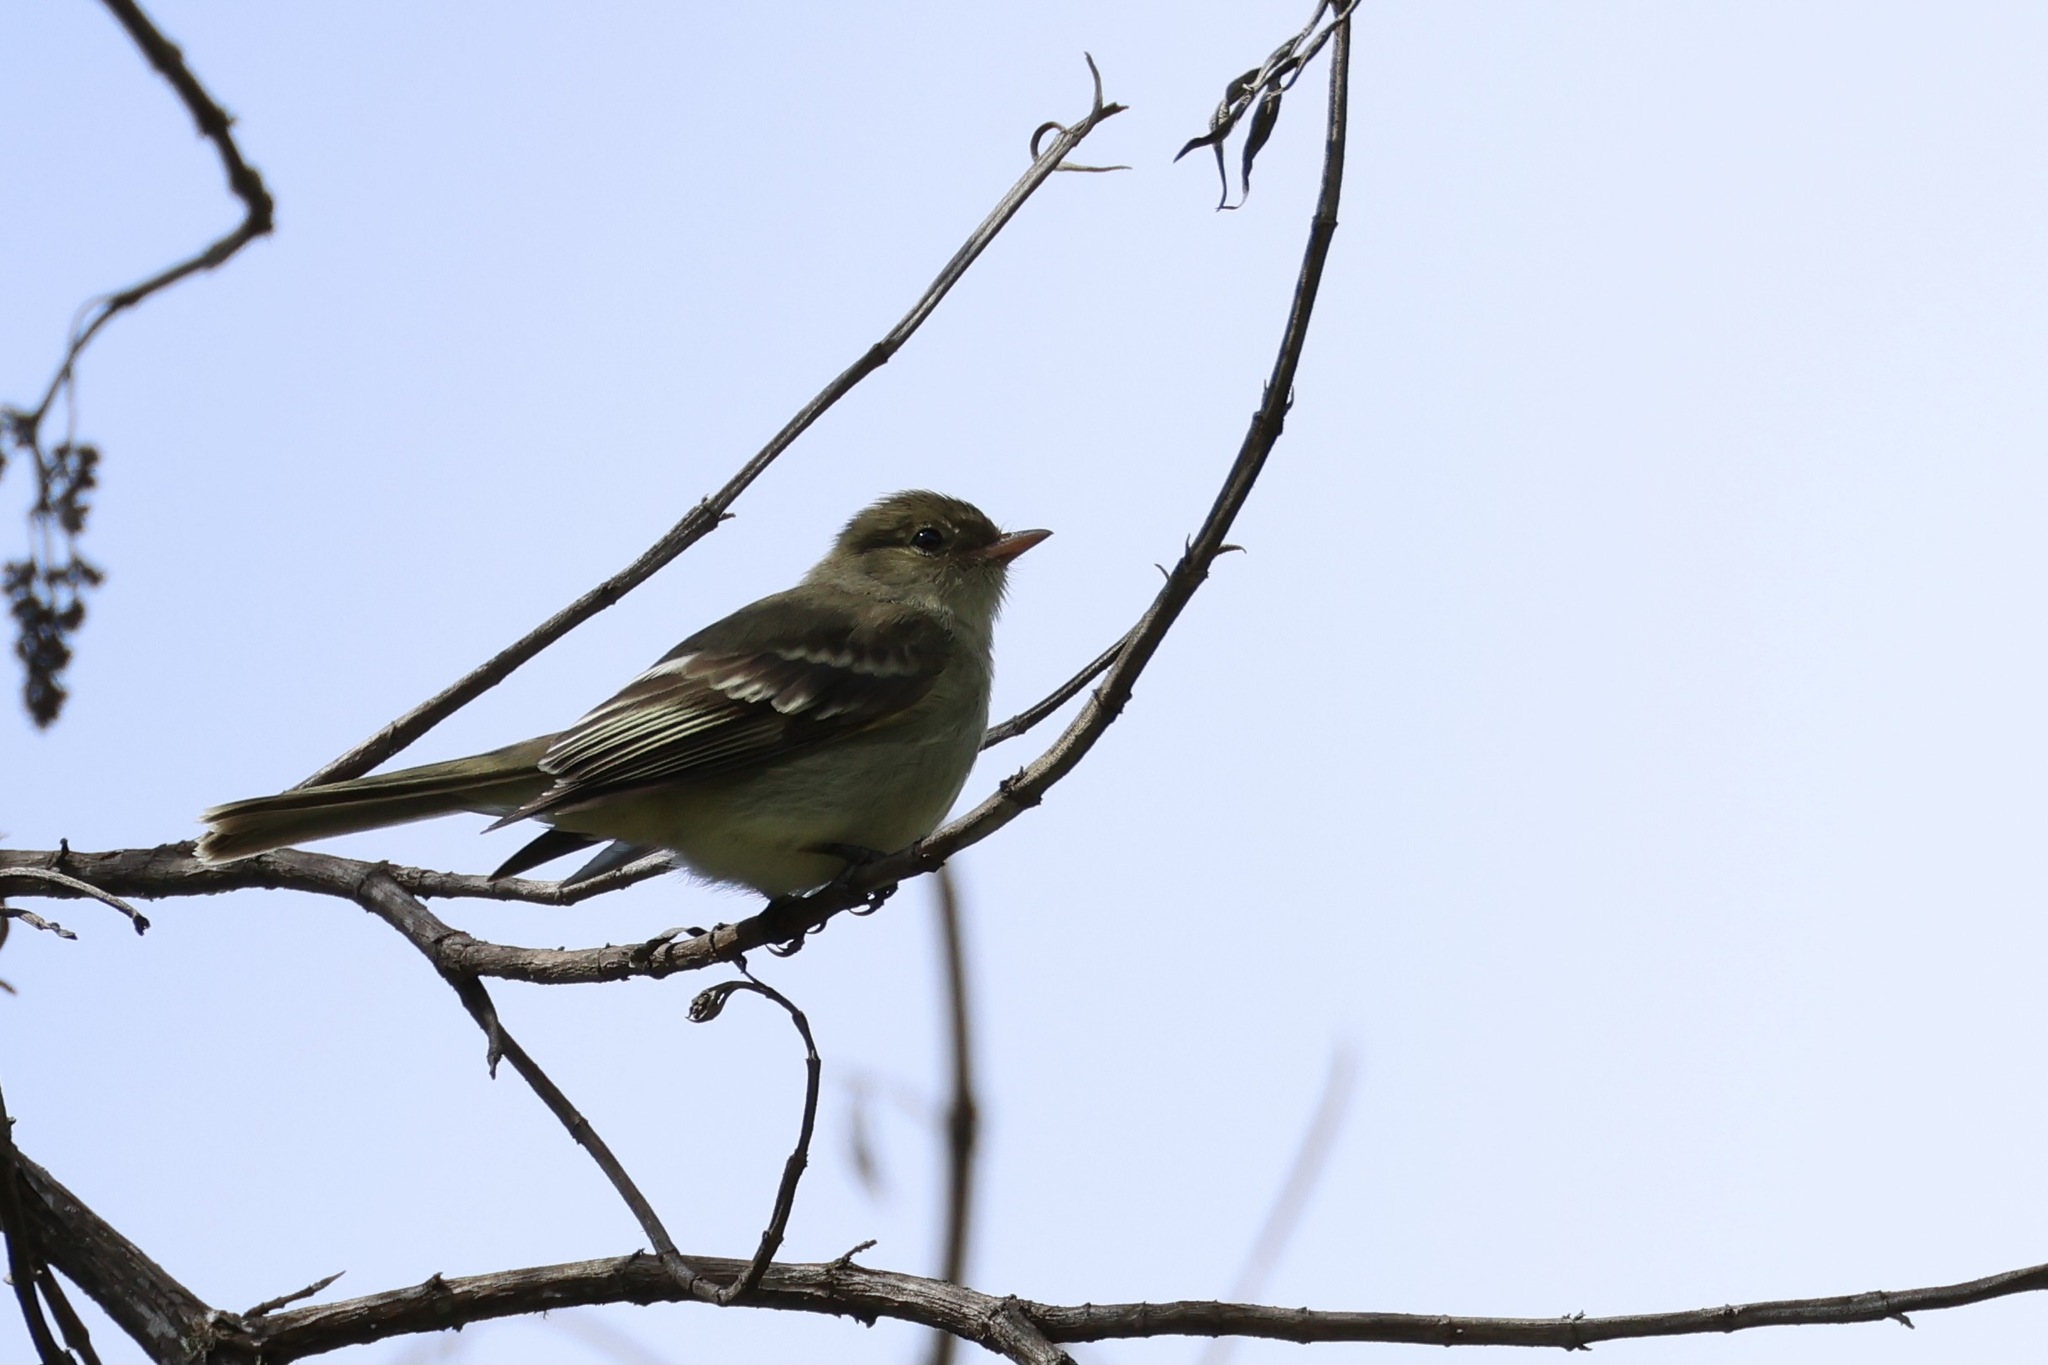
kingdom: Animalia
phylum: Chordata
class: Aves
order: Passeriformes
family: Tyrannidae
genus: Elaenia
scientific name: Elaenia frantzii
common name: Mountain elaenia
